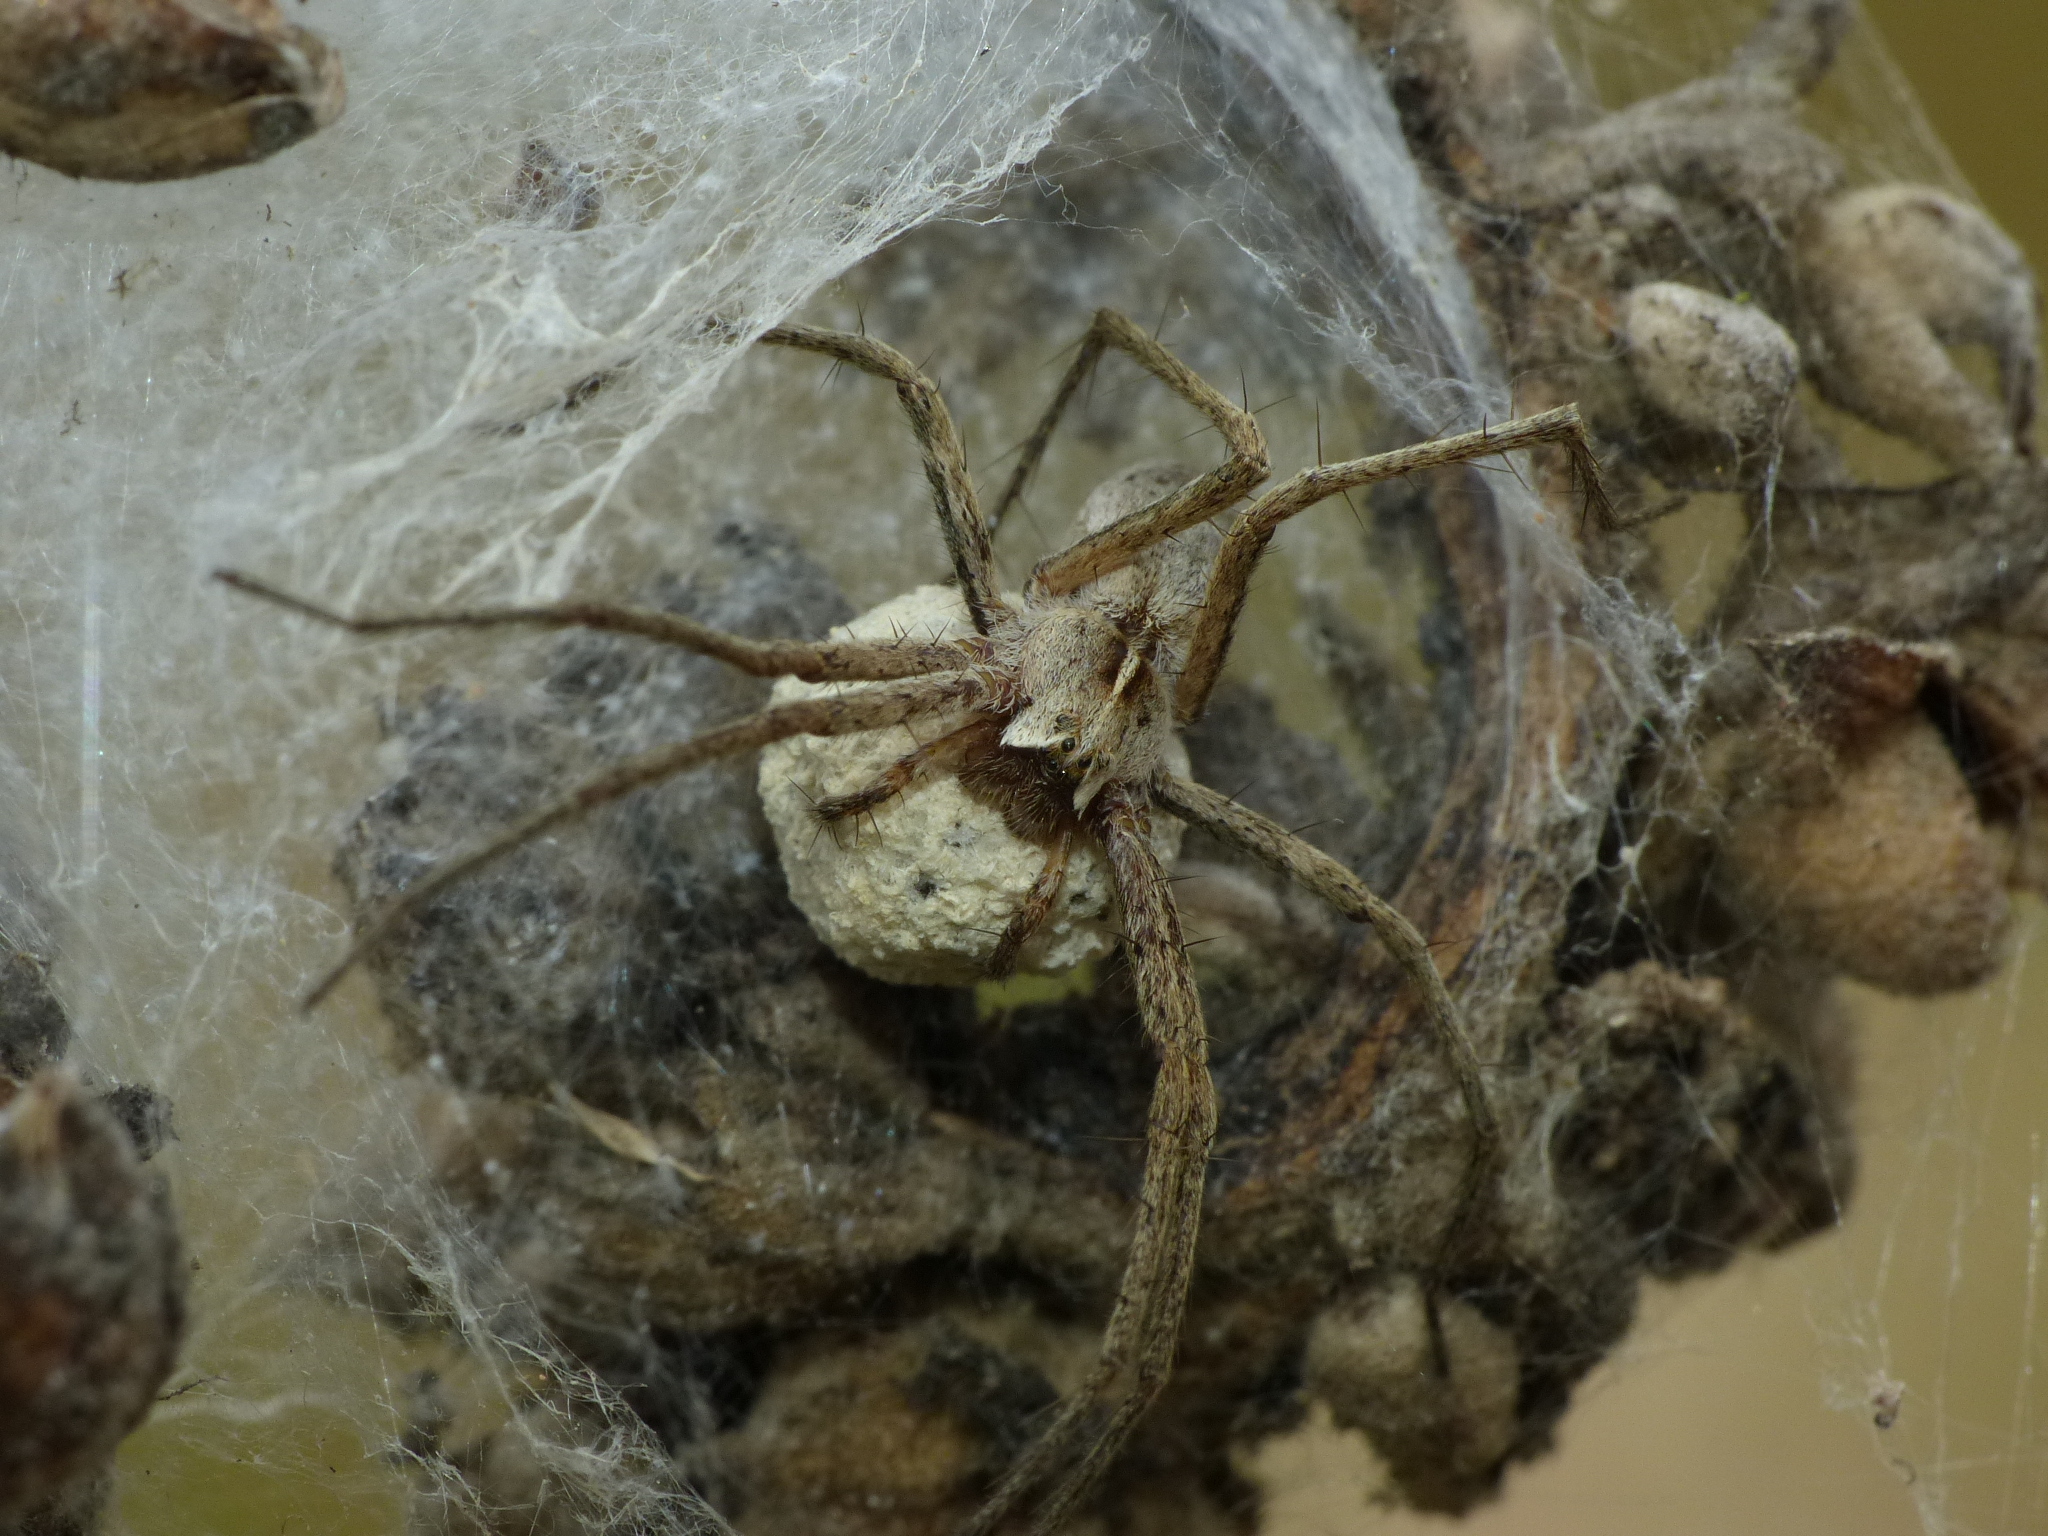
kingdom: Animalia
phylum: Arthropoda
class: Arachnida
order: Araneae
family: Pisauridae
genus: Pisaura
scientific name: Pisaura mirabilis
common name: Tent spider
